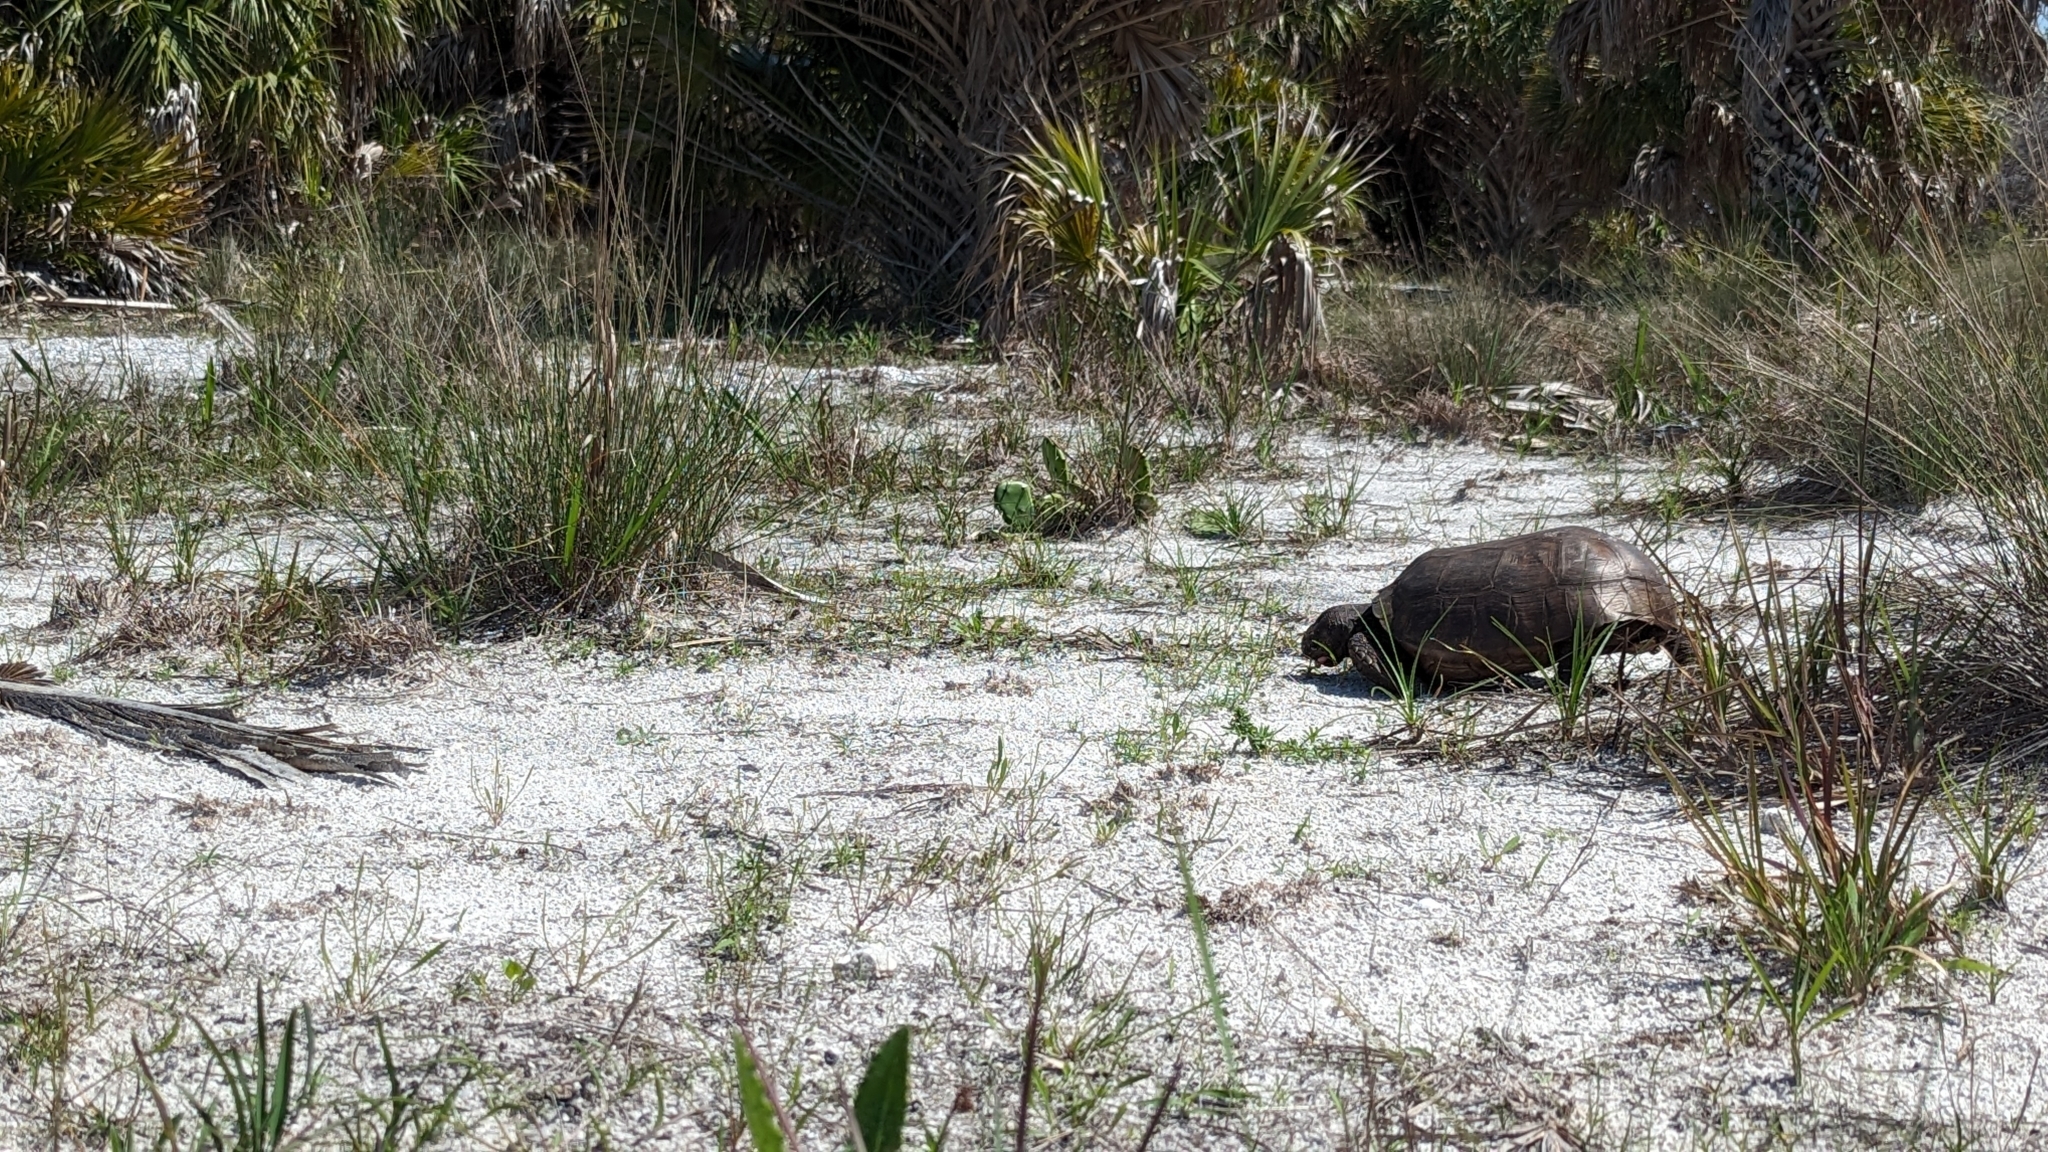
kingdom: Animalia
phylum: Chordata
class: Testudines
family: Testudinidae
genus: Gopherus
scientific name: Gopherus polyphemus
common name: Florida gopher tortoise
